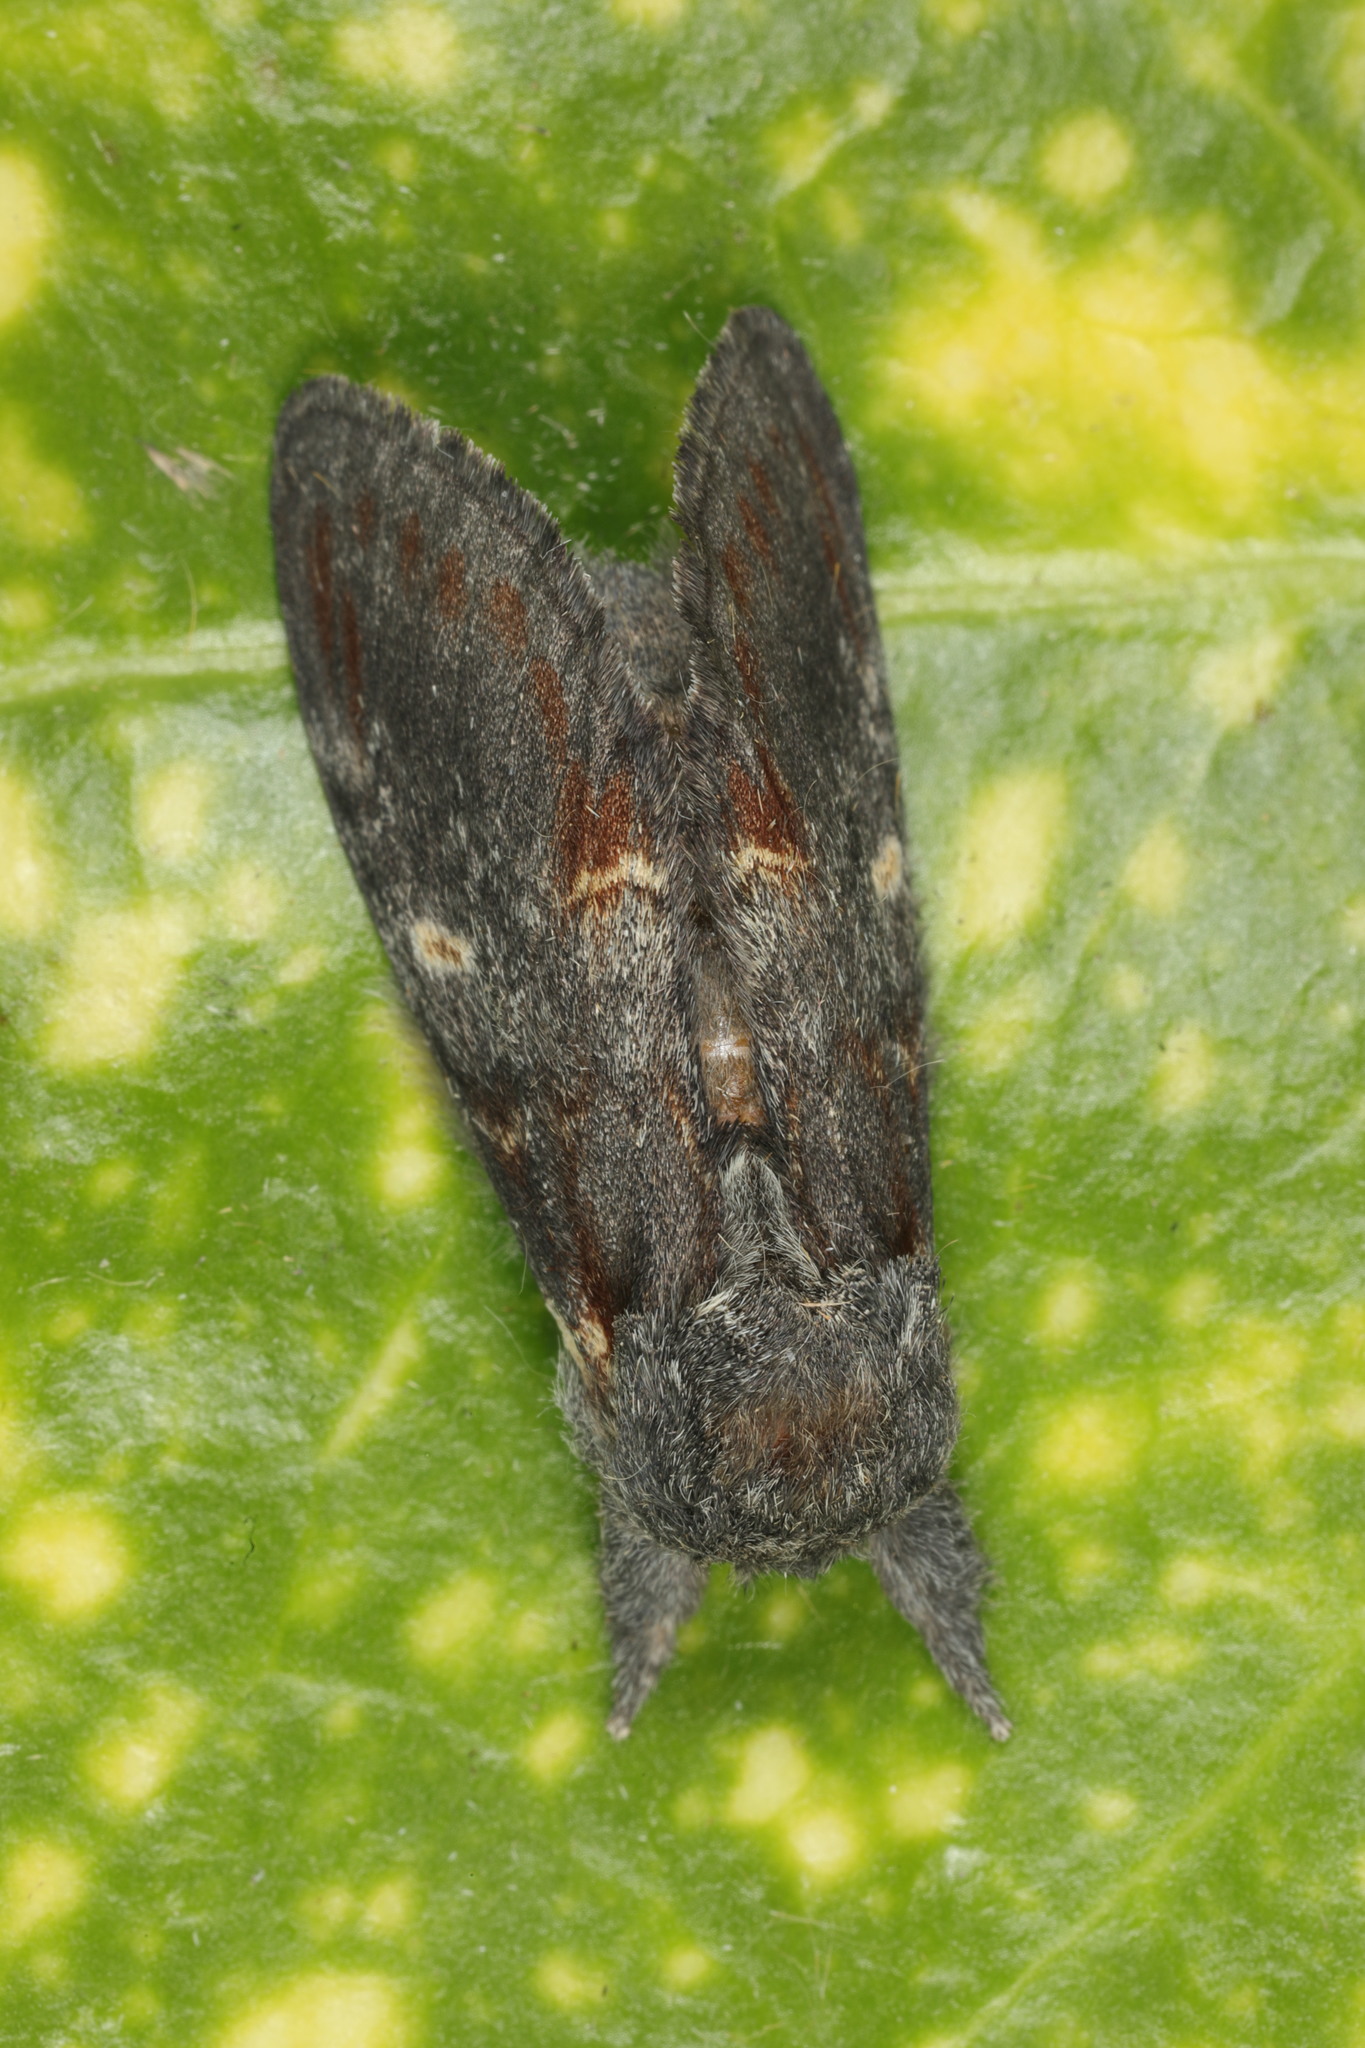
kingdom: Animalia
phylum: Arthropoda
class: Insecta
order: Lepidoptera
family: Notodontidae
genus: Notodonta
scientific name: Notodonta dromedarius
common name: Iron prominent
